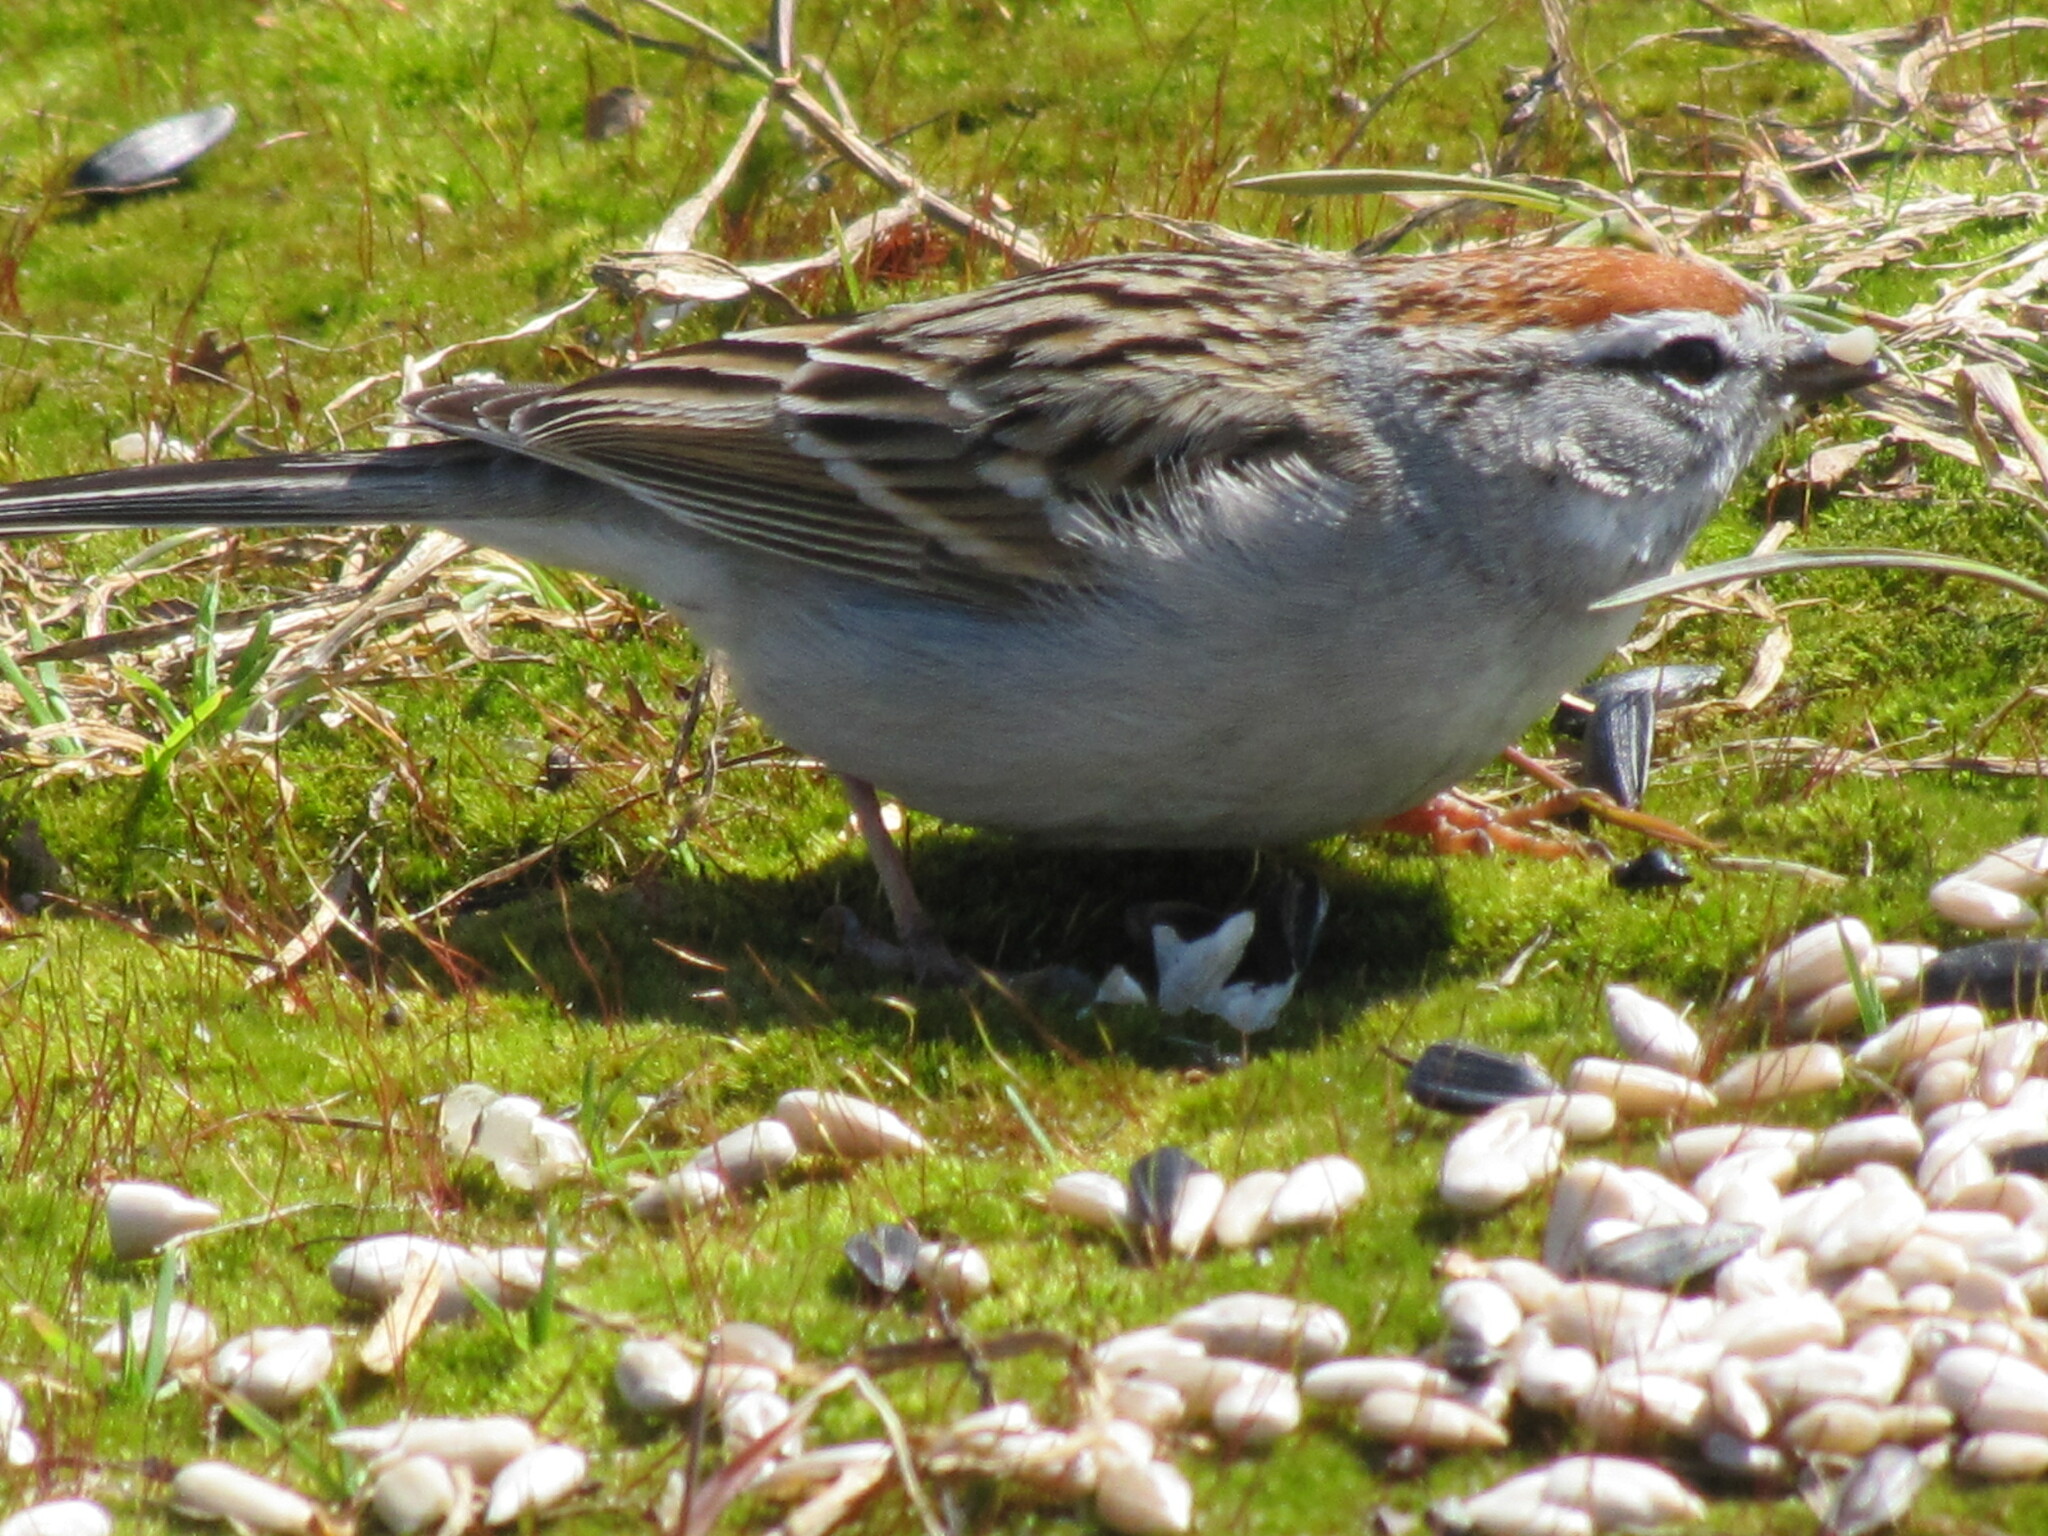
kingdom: Animalia
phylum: Chordata
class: Aves
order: Passeriformes
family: Passerellidae
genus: Spizella
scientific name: Spizella passerina
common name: Chipping sparrow
